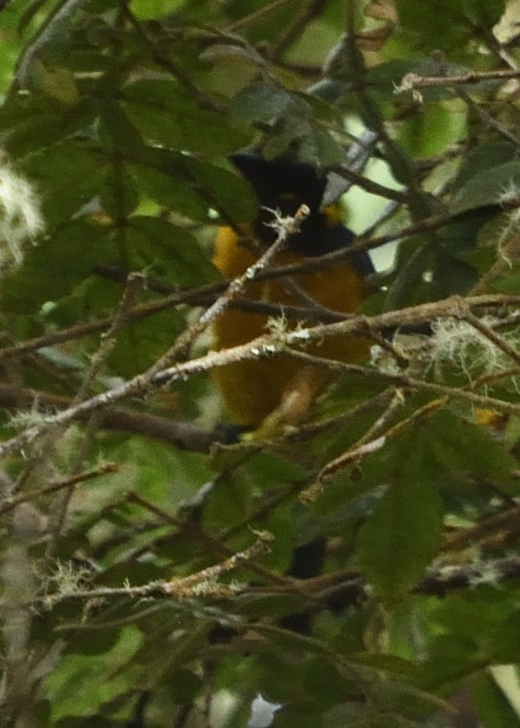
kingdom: Animalia
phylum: Chordata
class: Aves
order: Passeriformes
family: Thraupidae
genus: Anisognathus
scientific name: Anisognathus lacrymosus
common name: Lacrimose mountain-tanager
